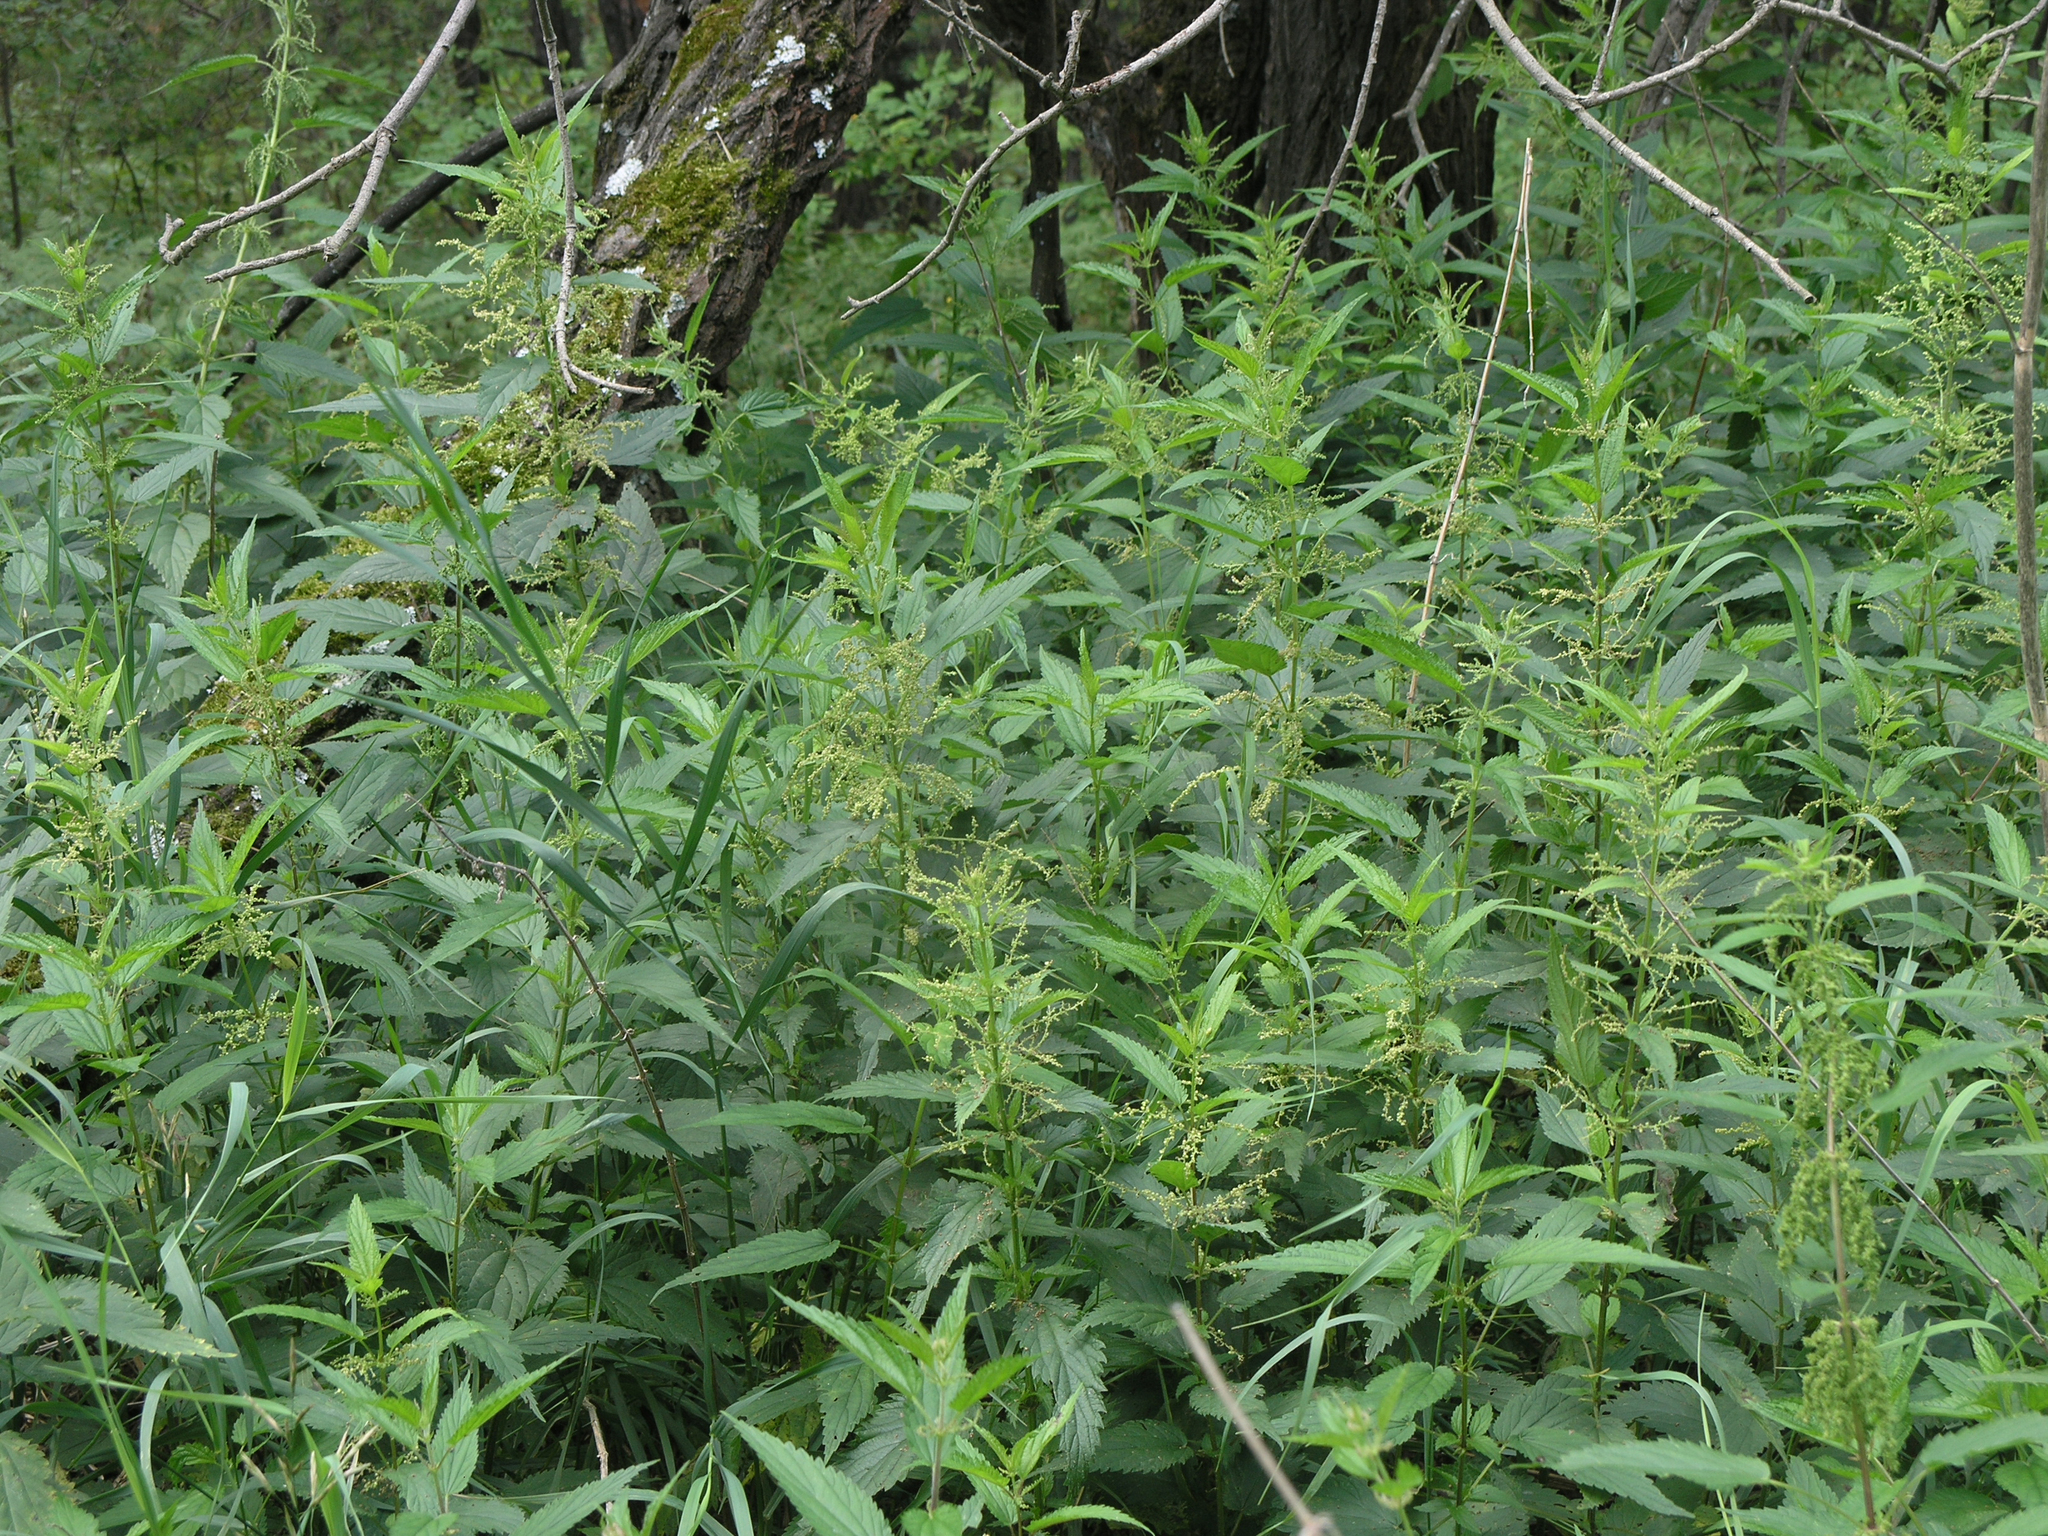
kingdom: Plantae
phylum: Tracheophyta
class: Magnoliopsida
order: Rosales
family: Urticaceae
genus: Urtica
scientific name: Urtica dioica
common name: Common nettle
